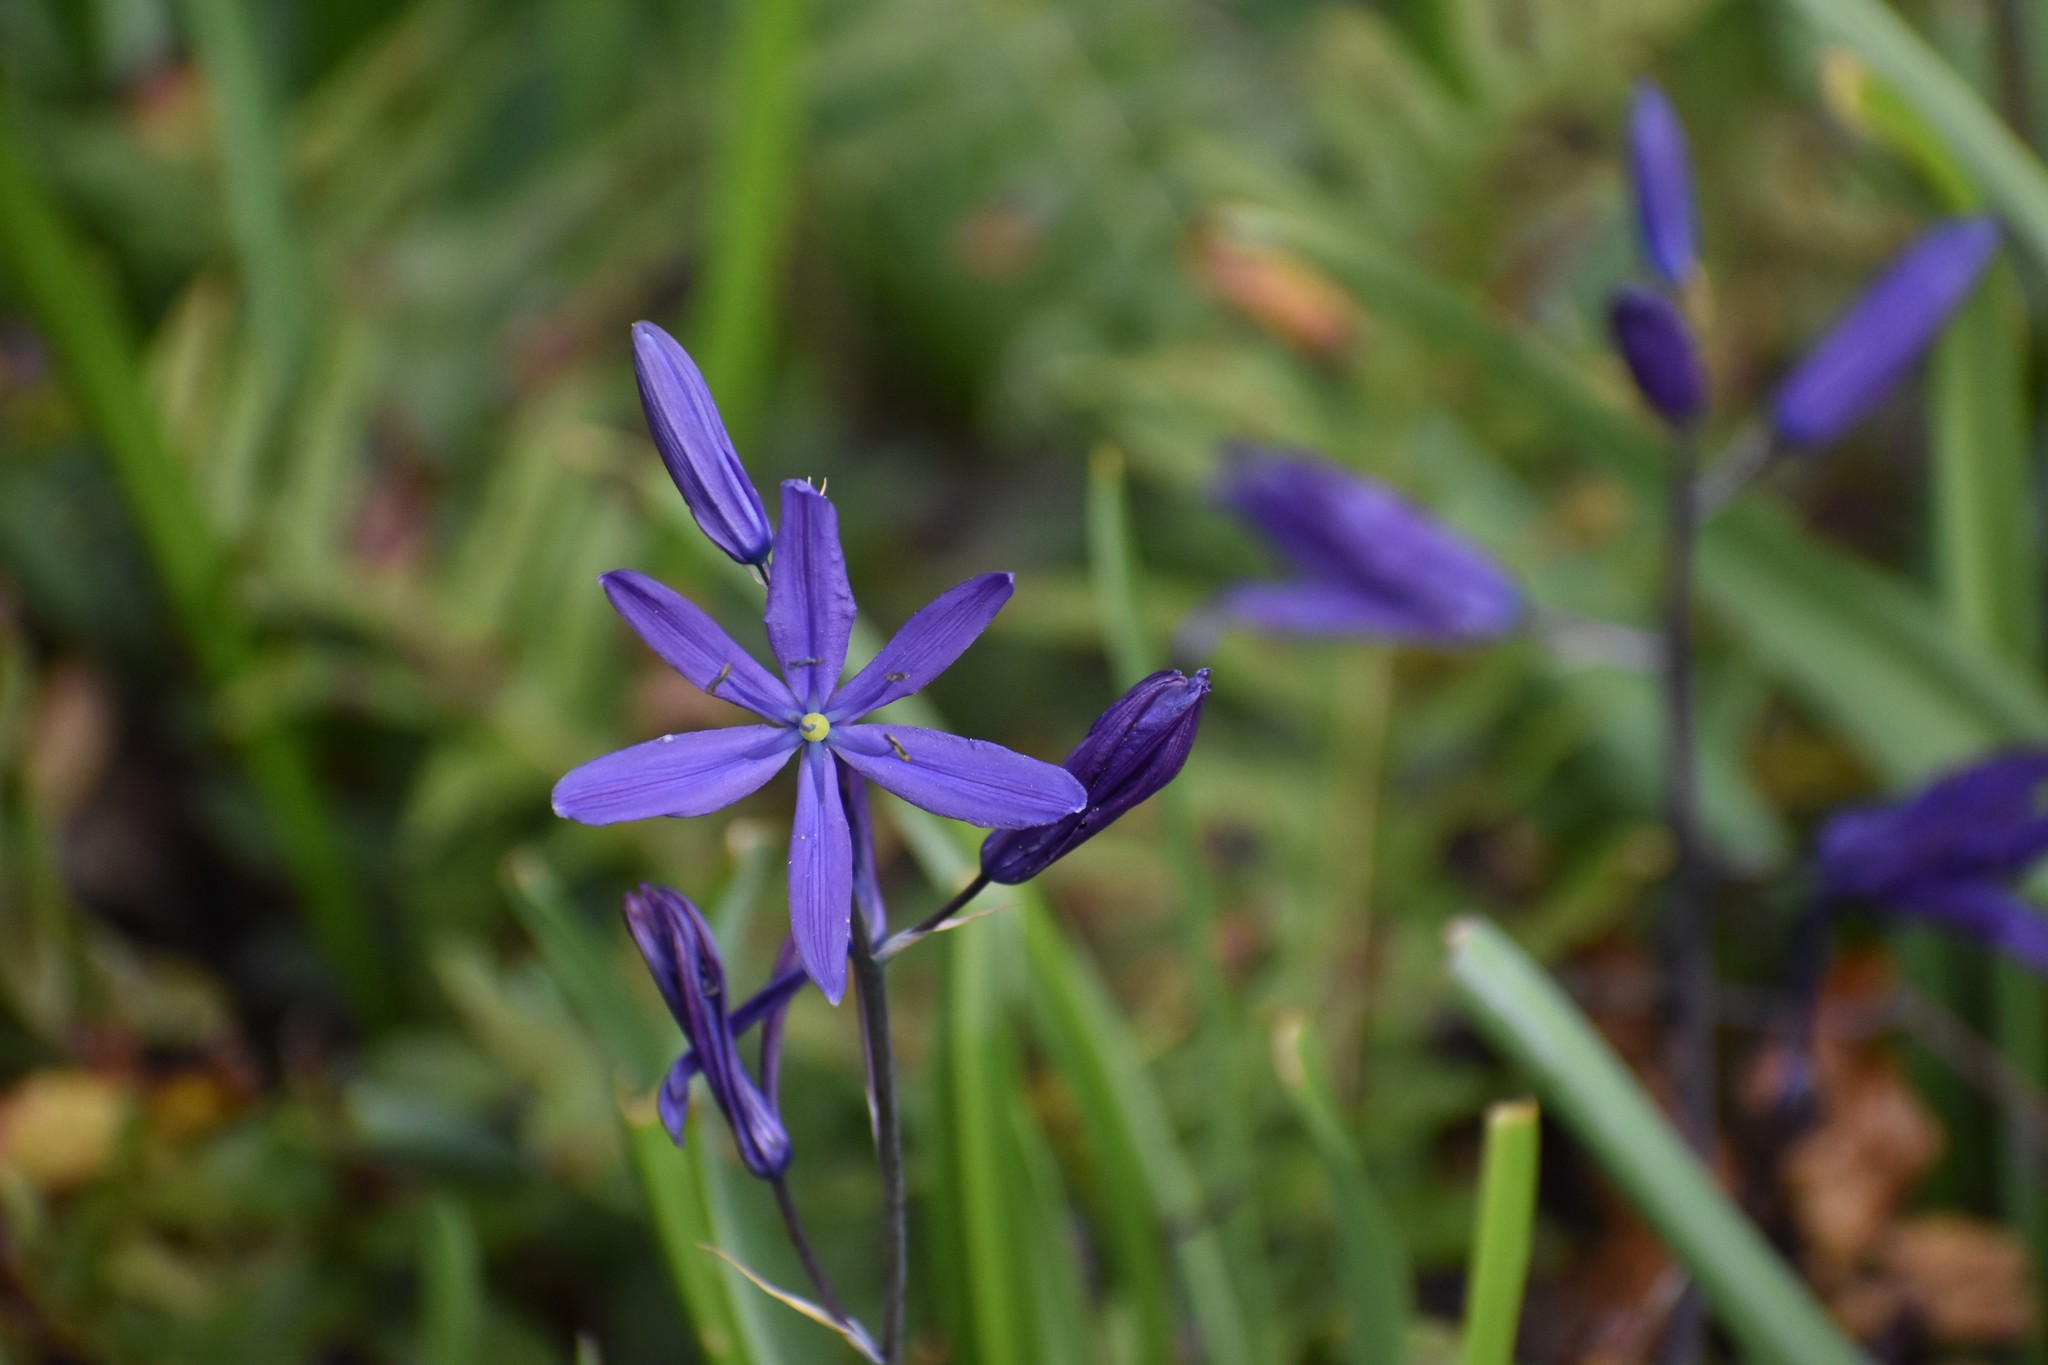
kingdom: Plantae
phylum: Tracheophyta
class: Liliopsida
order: Asparagales
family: Asparagaceae
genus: Camassia
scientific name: Camassia leichtlinii
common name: Leichtlin's camas
